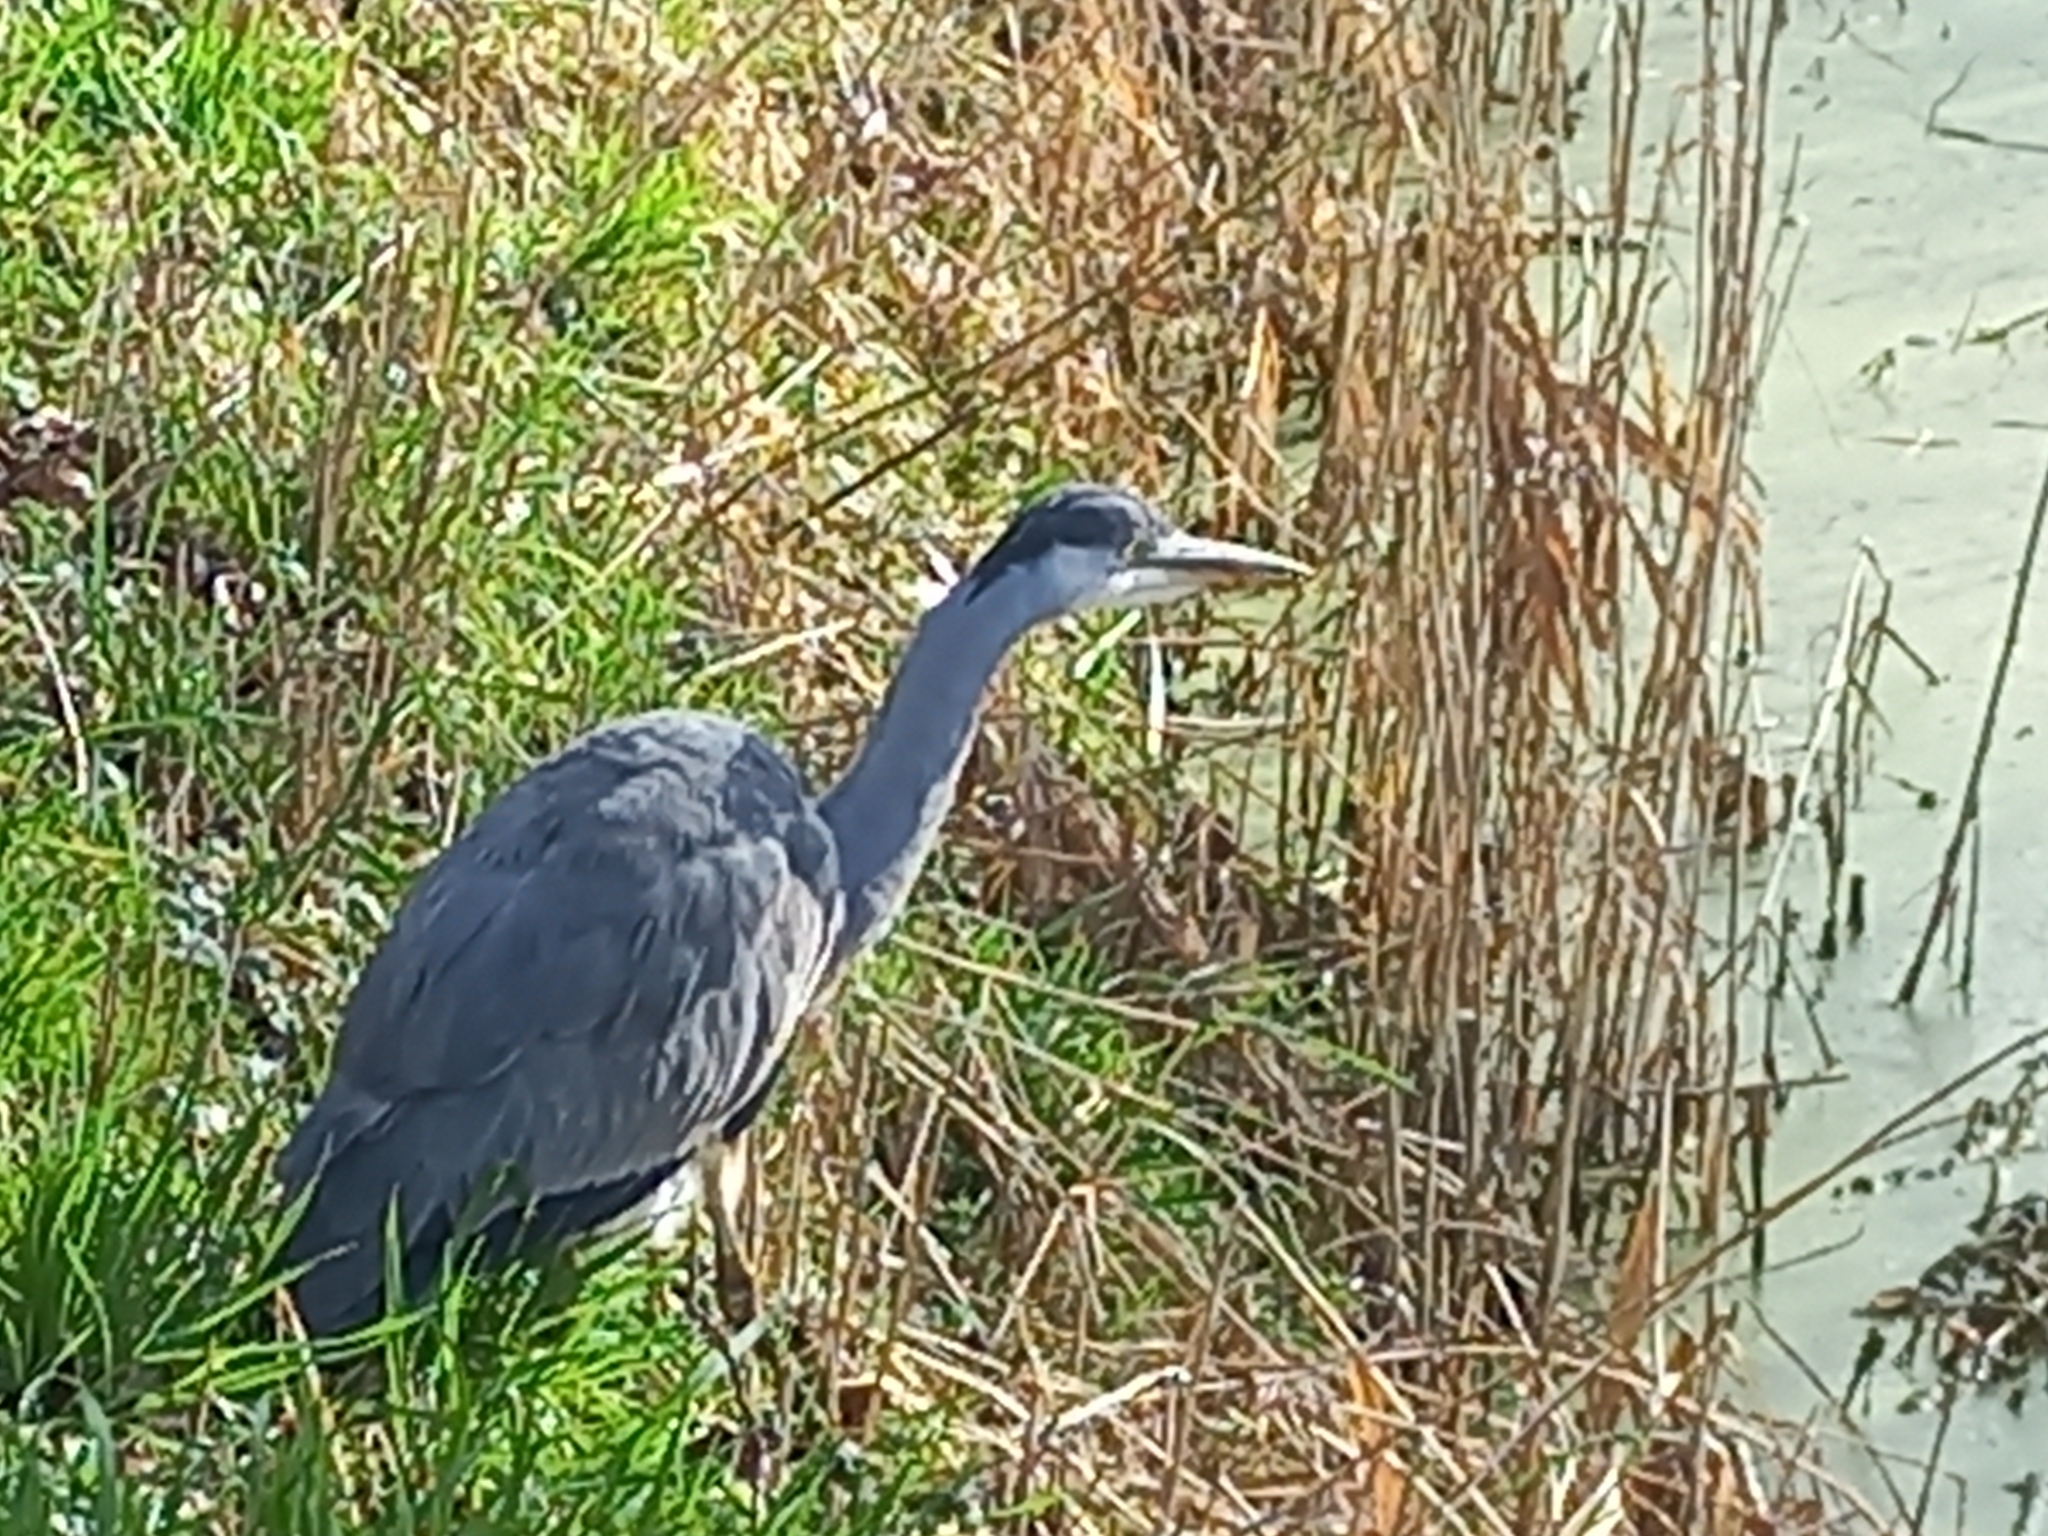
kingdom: Animalia
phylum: Chordata
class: Aves
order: Pelecaniformes
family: Ardeidae
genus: Ardea
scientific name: Ardea cinerea
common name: Grey heron
